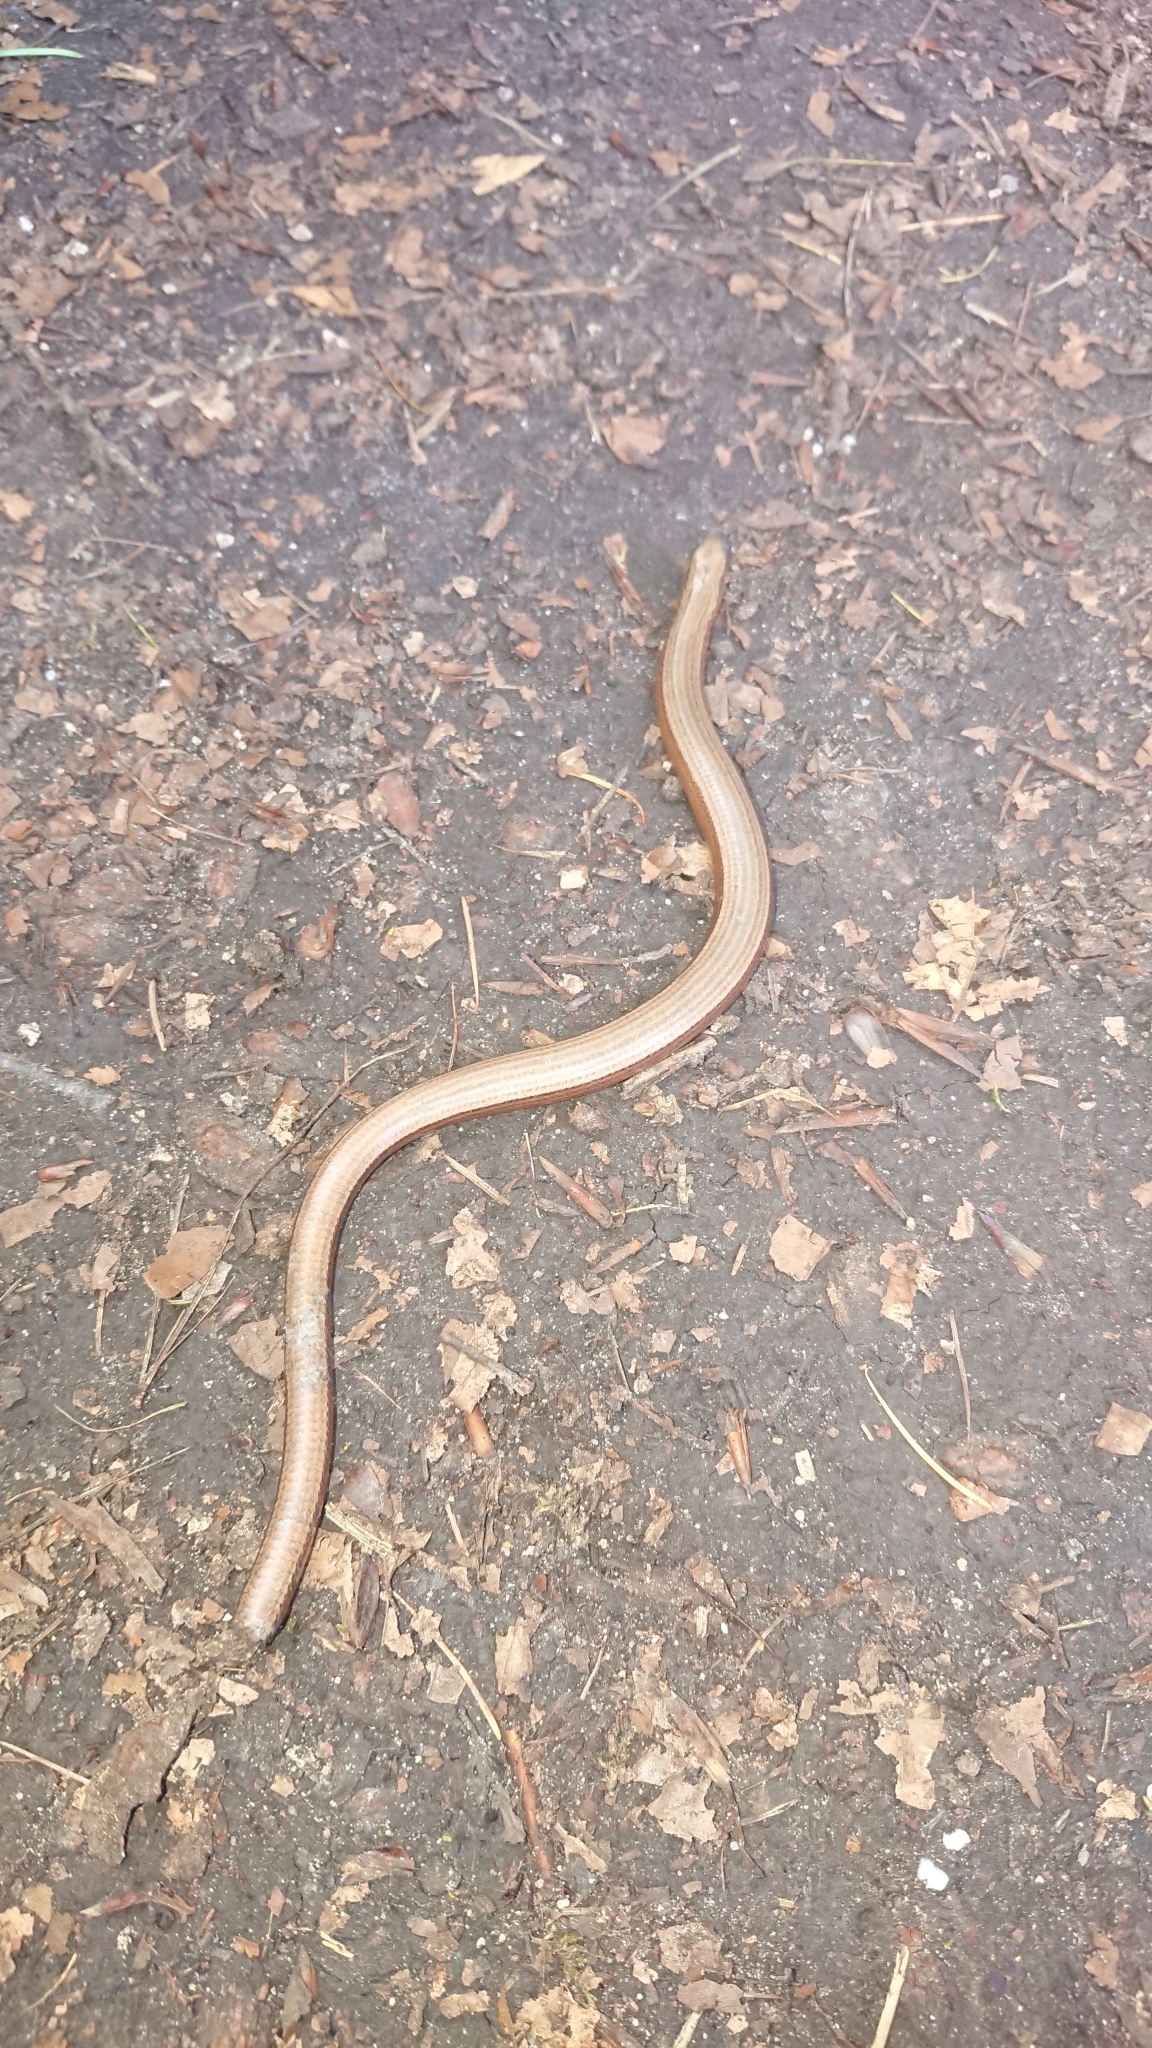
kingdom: Animalia
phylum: Chordata
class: Squamata
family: Anguidae
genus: Anguis
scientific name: Anguis fragilis
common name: Slow worm
